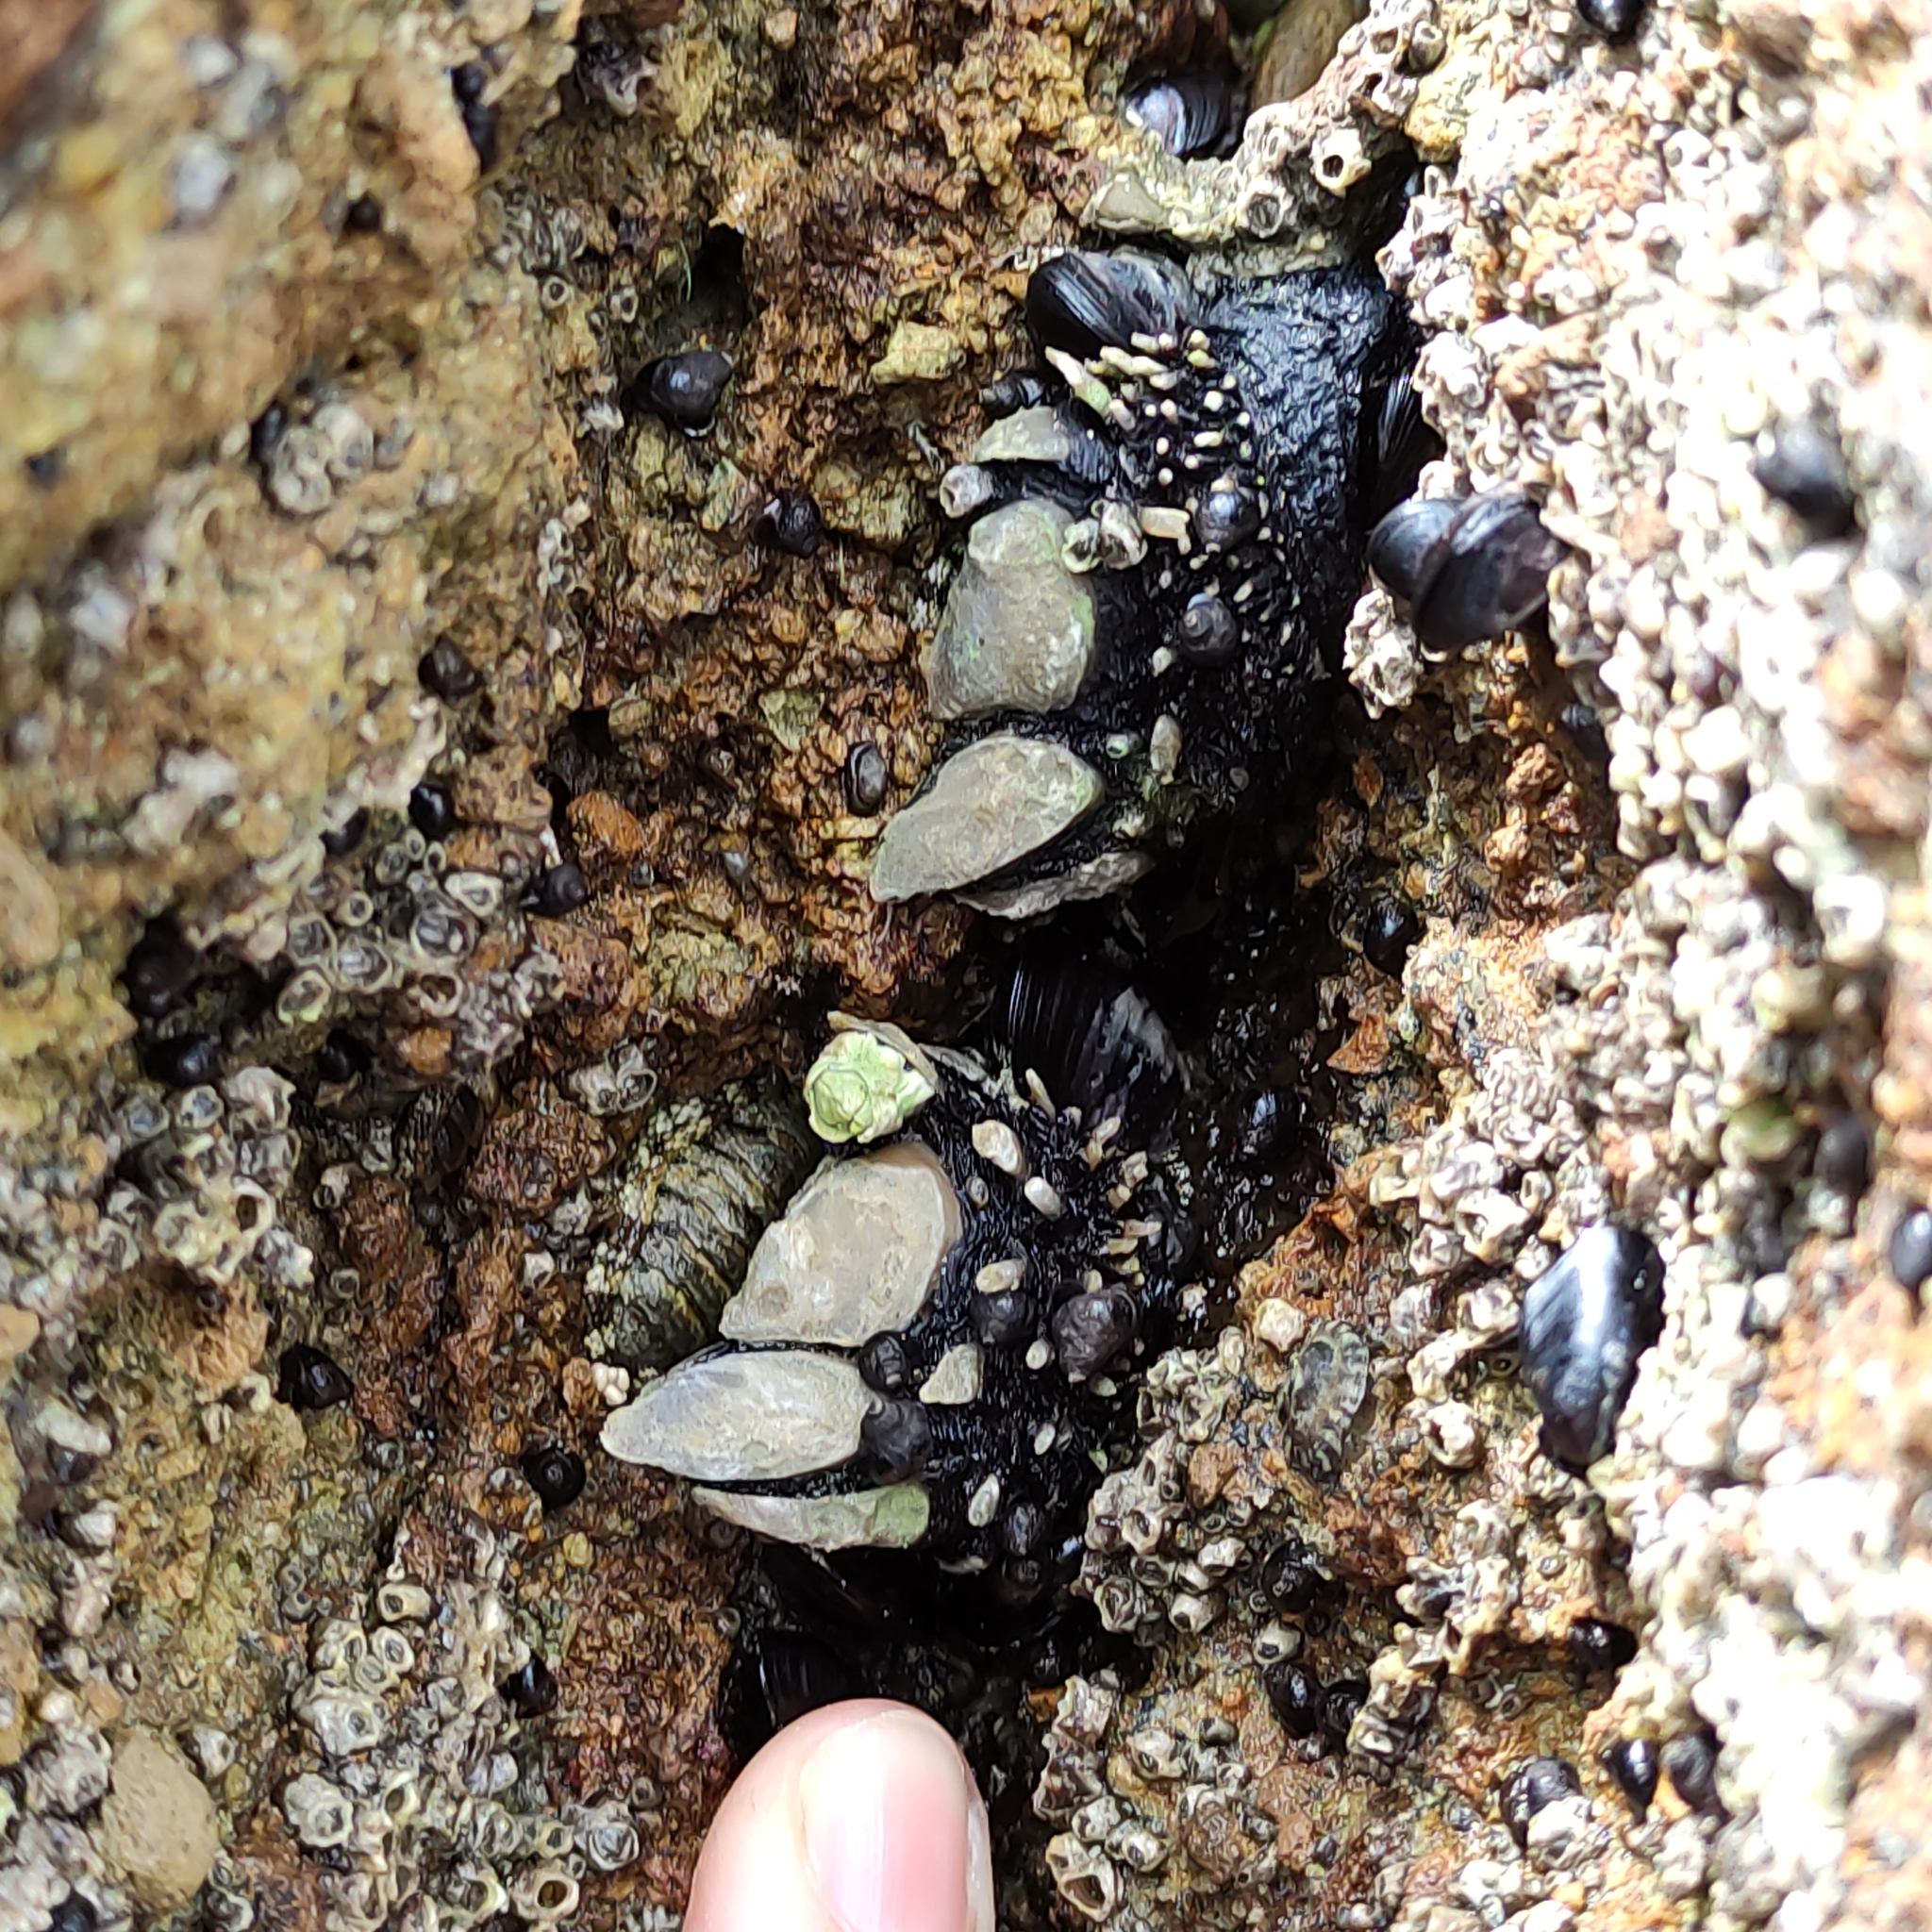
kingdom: Animalia
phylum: Arthropoda
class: Maxillopoda
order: Pedunculata
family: Calanticidae
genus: Calantica
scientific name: Calantica spinosa
